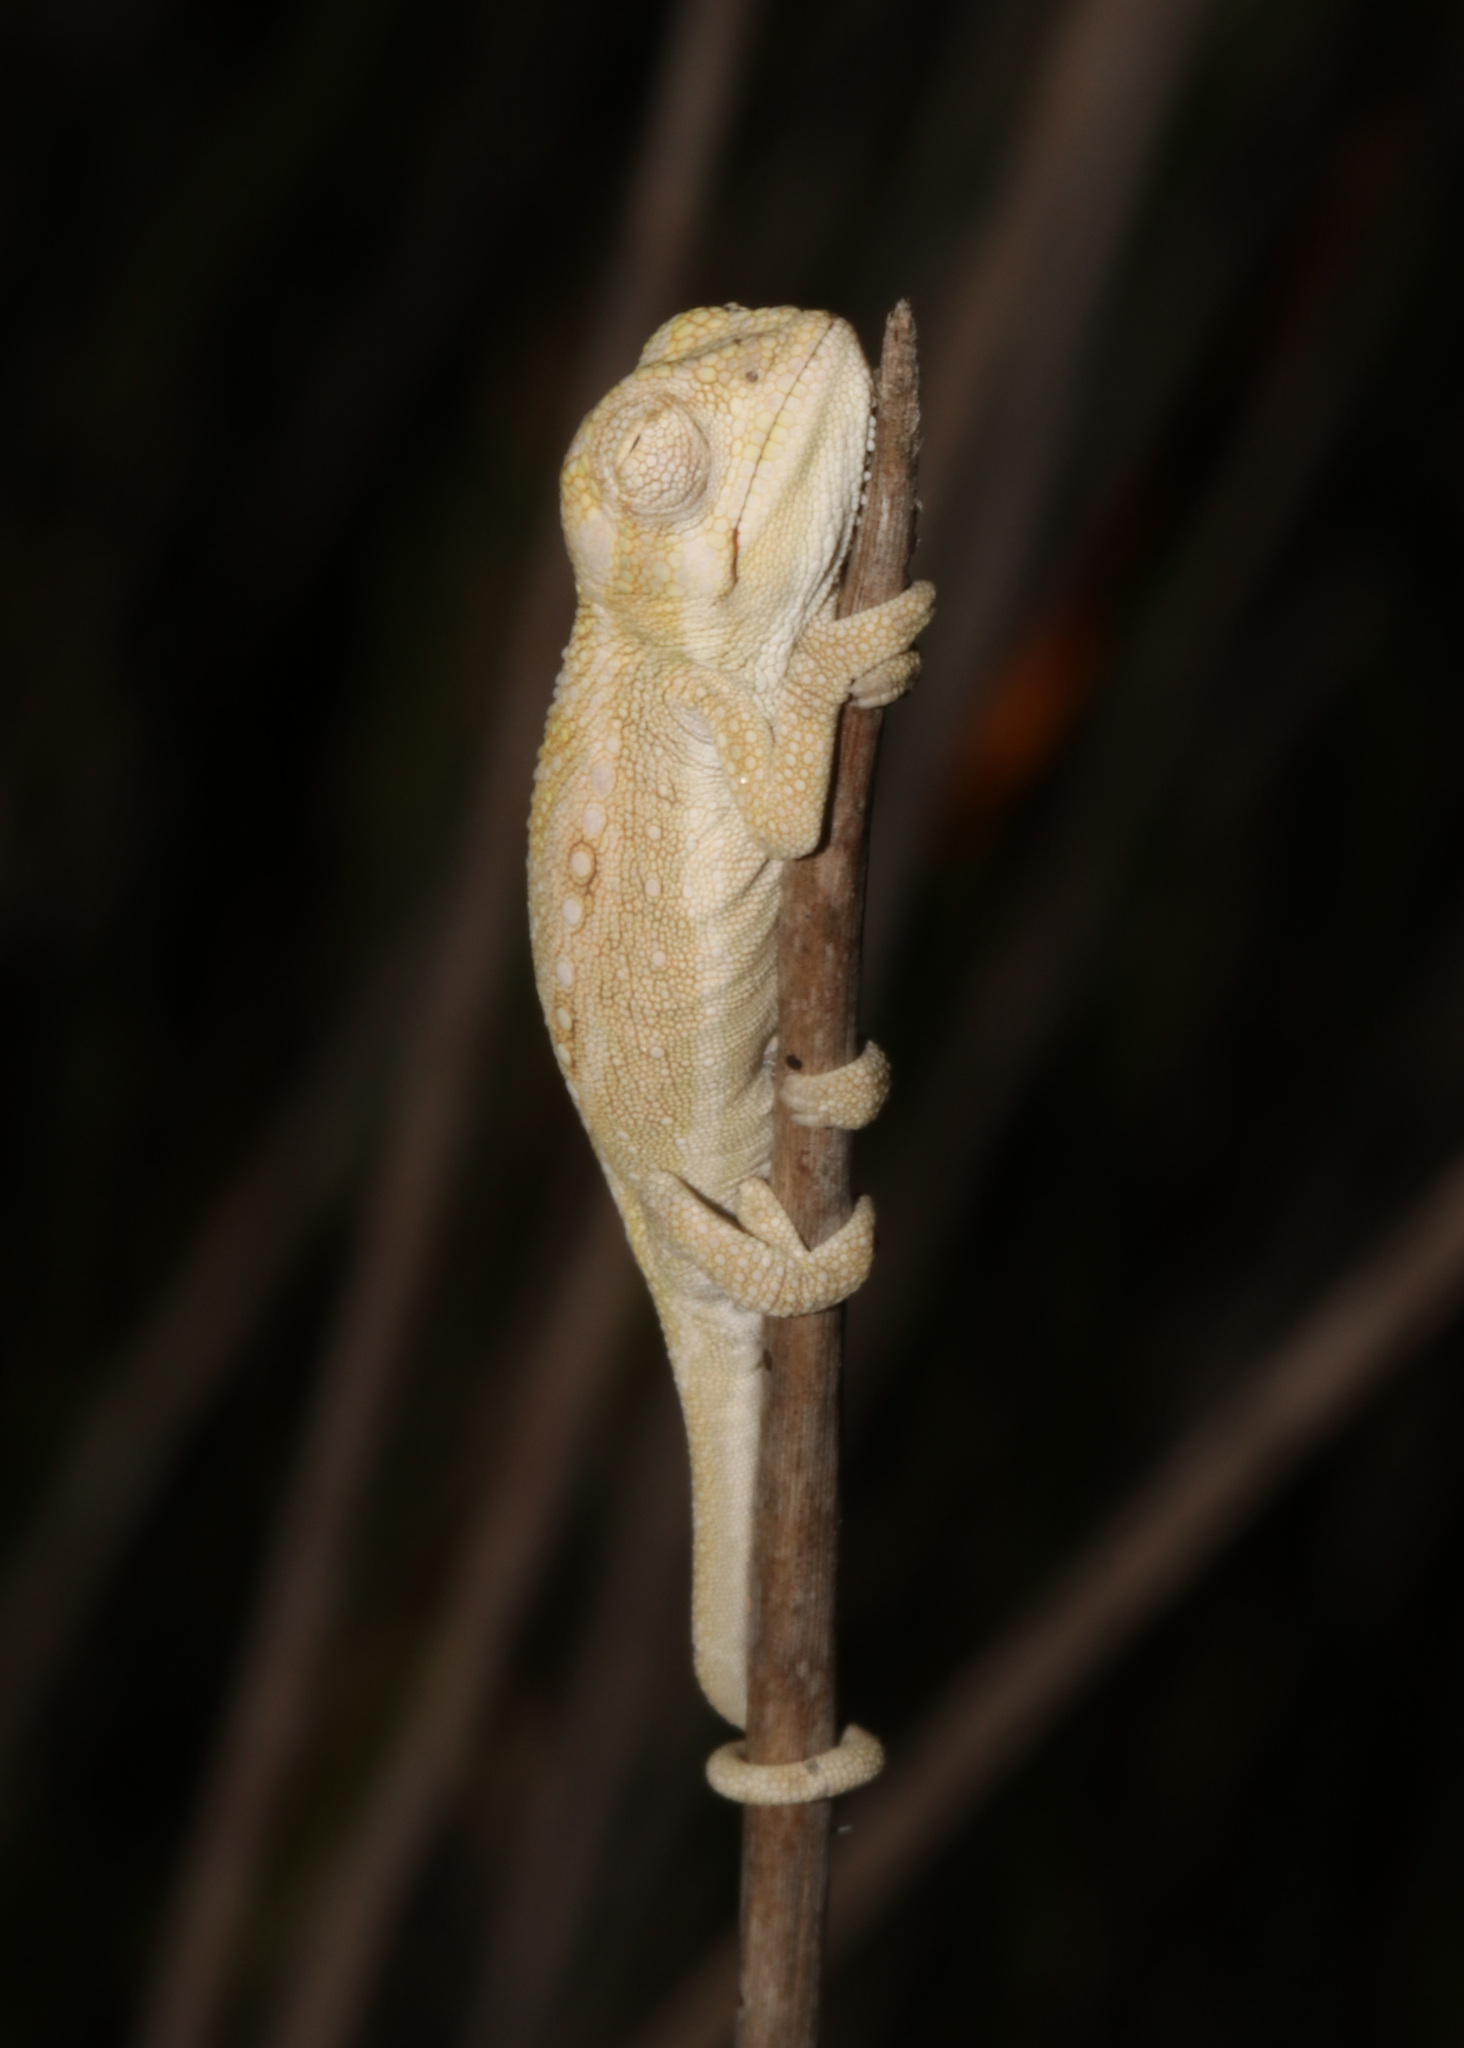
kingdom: Animalia
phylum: Chordata
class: Squamata
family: Chamaeleonidae
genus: Bradypodion
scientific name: Bradypodion pumilum
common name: Cape dwarf chameleon
